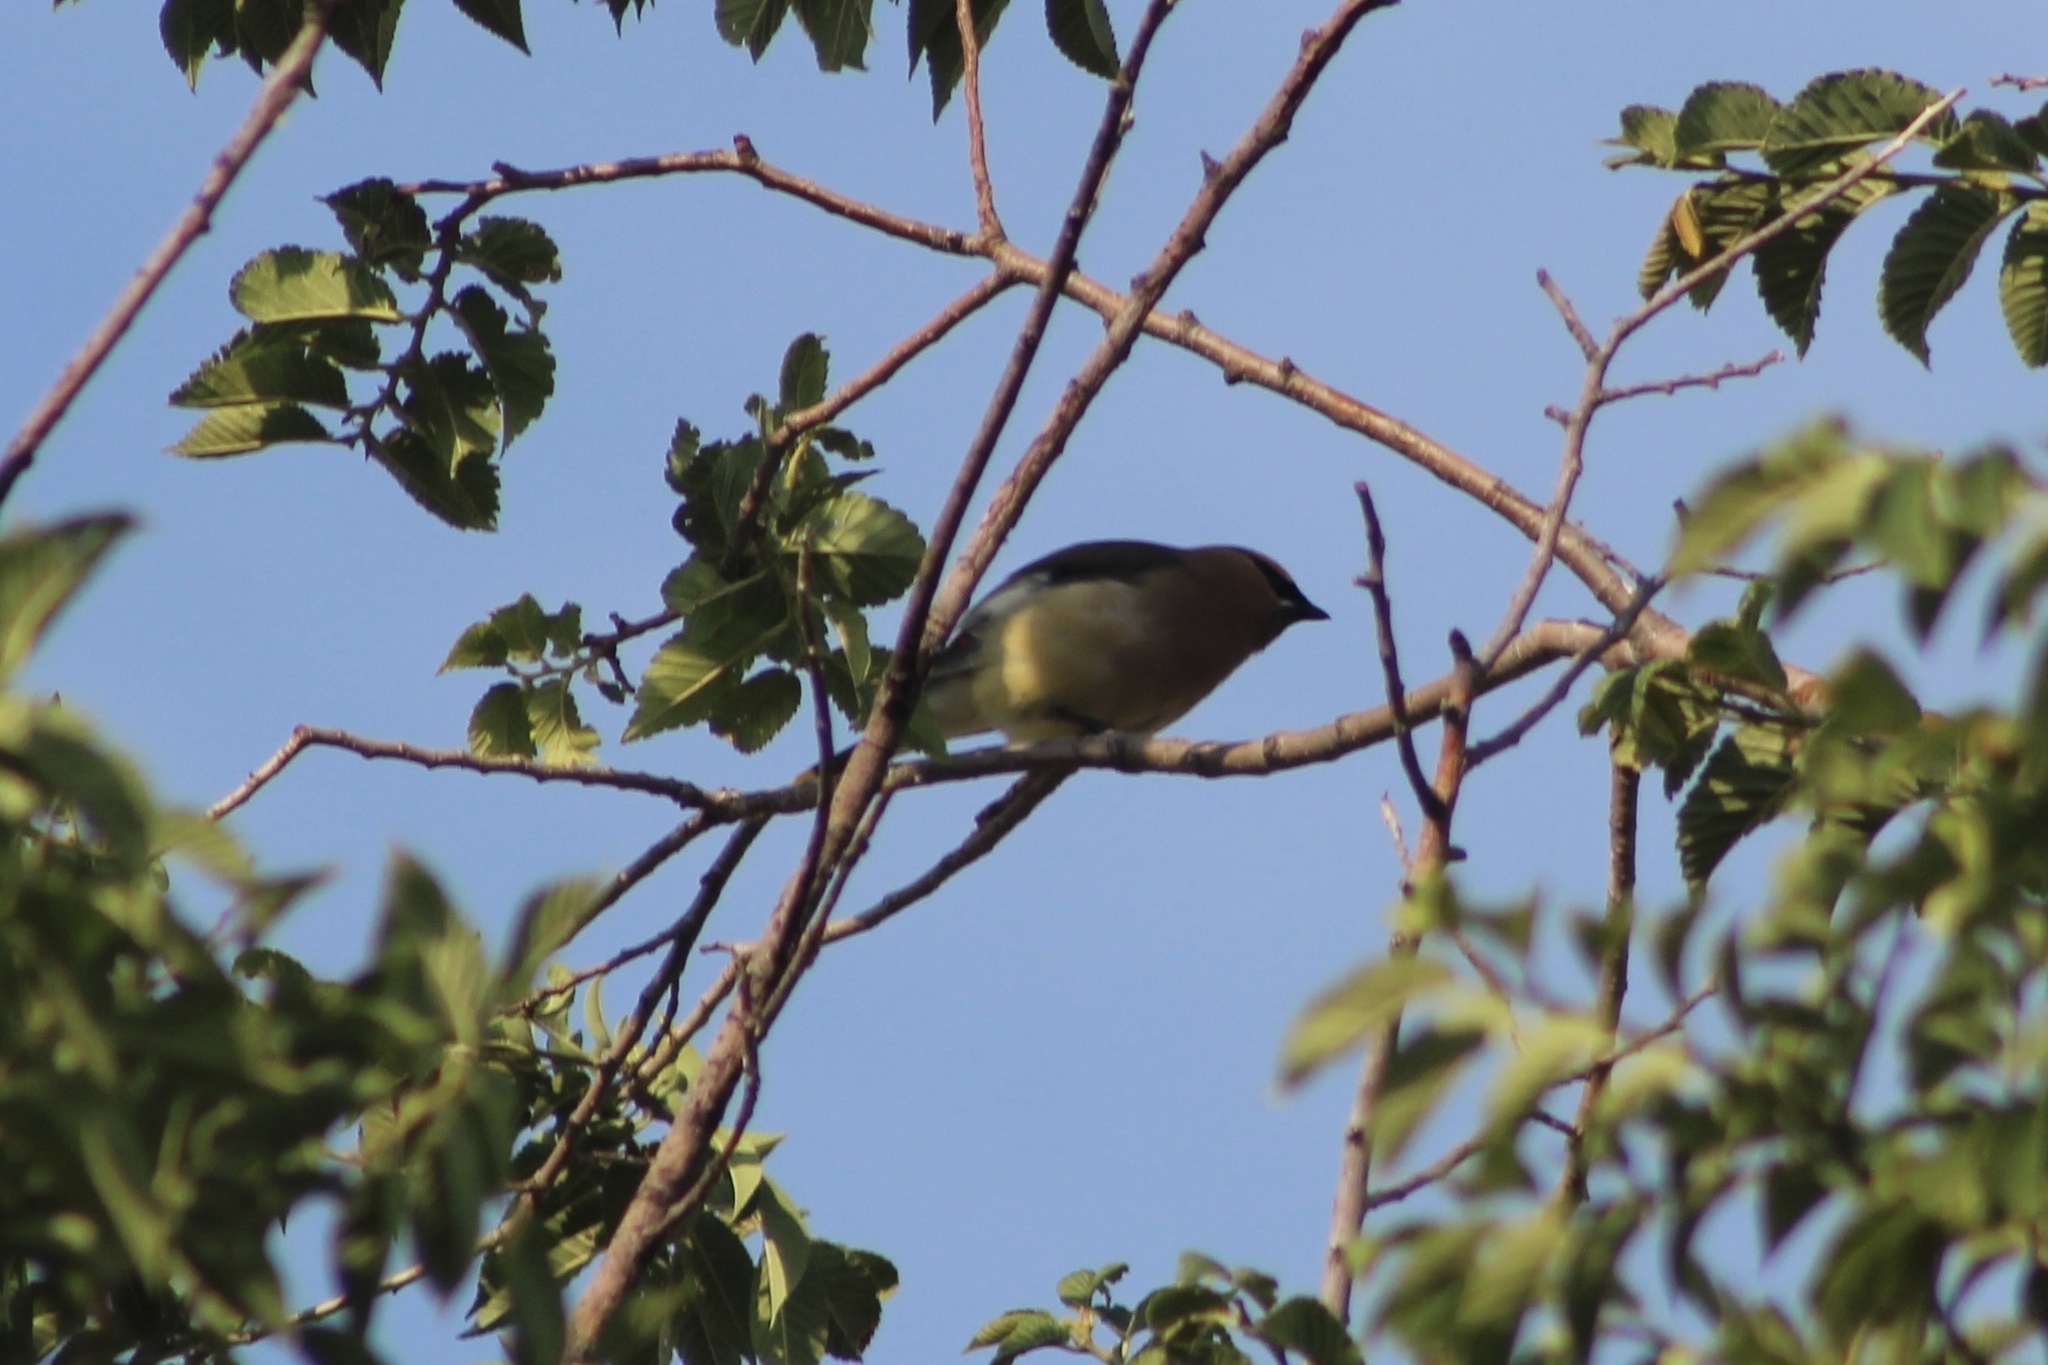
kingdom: Animalia
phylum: Chordata
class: Aves
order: Passeriformes
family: Bombycillidae
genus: Bombycilla
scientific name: Bombycilla cedrorum
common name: Cedar waxwing
